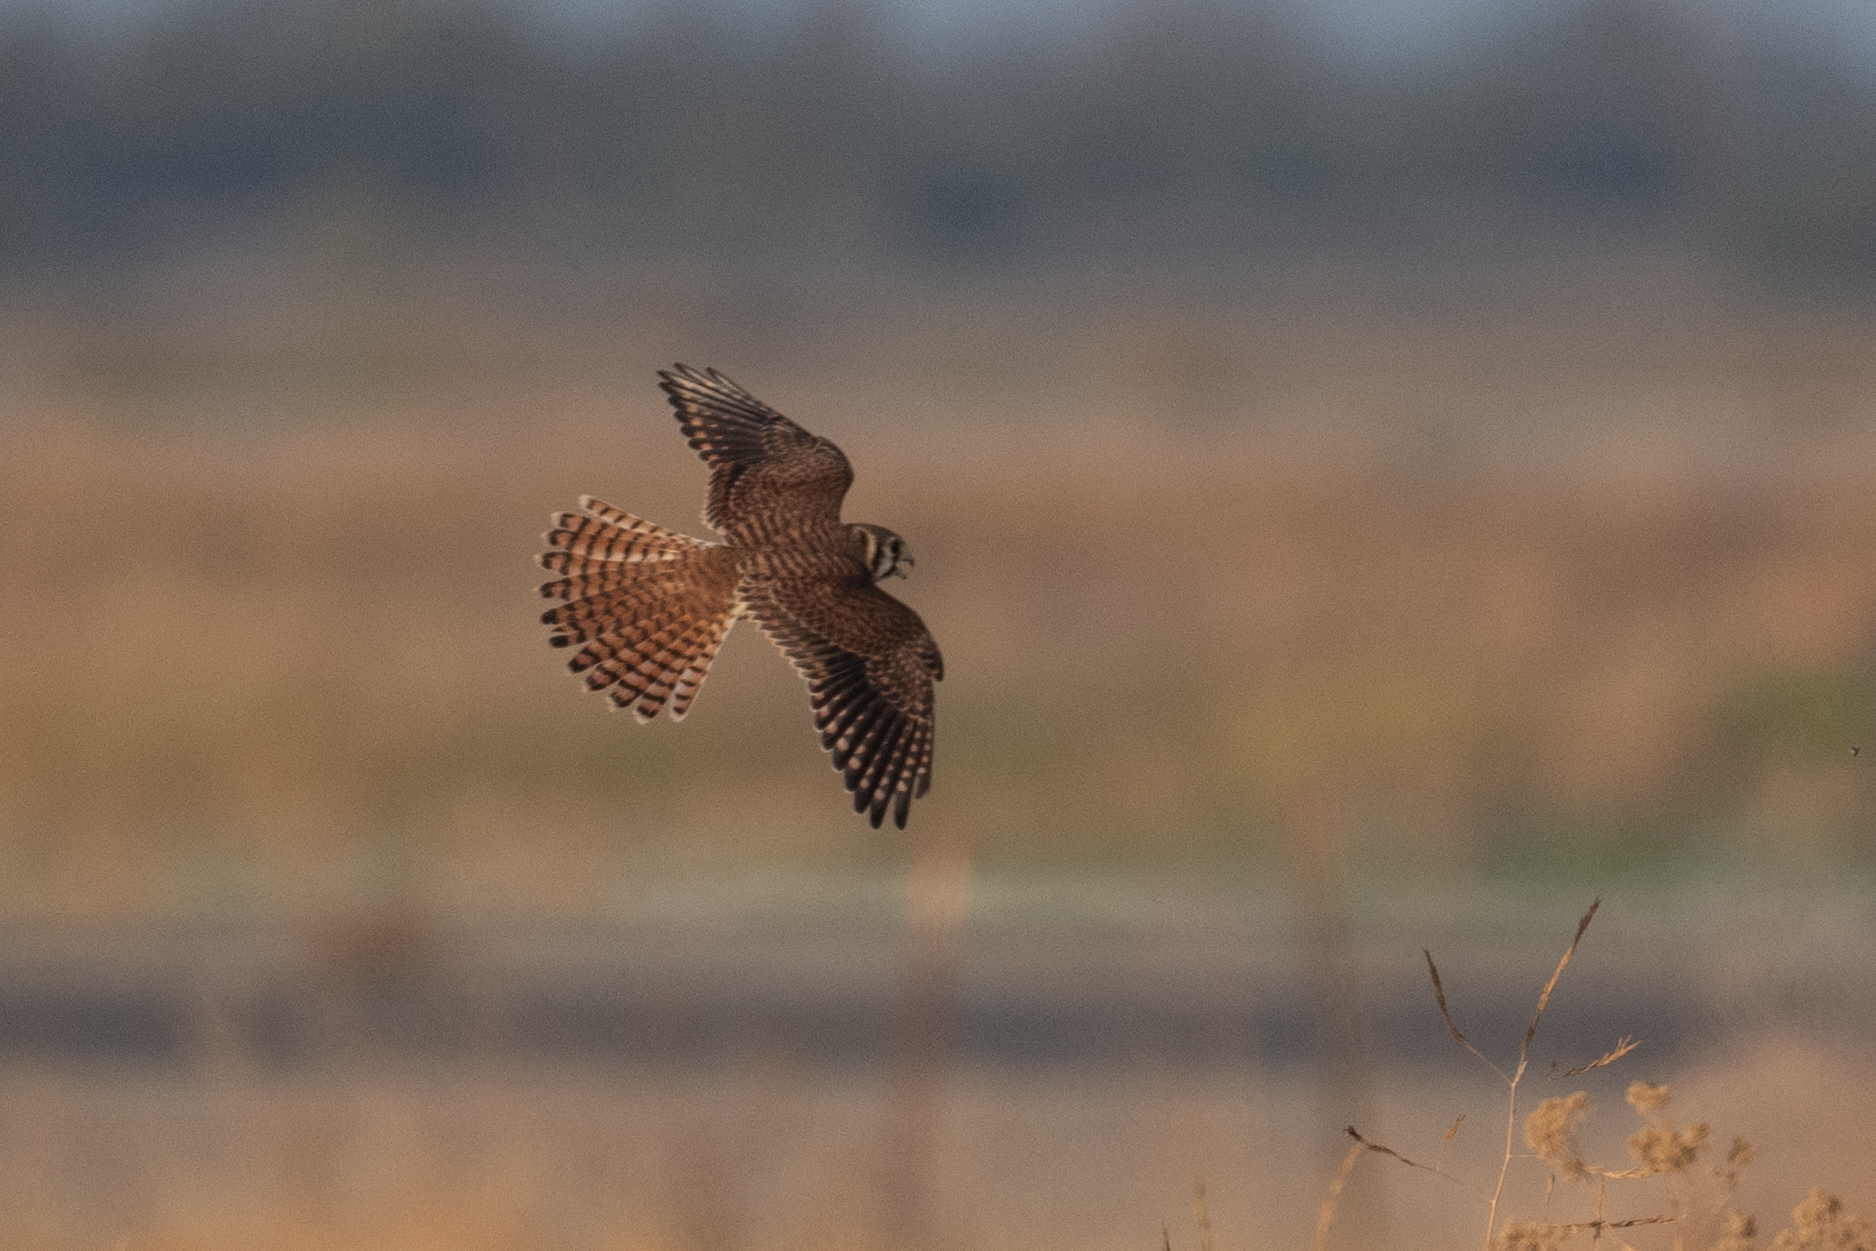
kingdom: Animalia
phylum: Chordata
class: Aves
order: Falconiformes
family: Falconidae
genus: Falco
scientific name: Falco sparverius
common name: American kestrel
